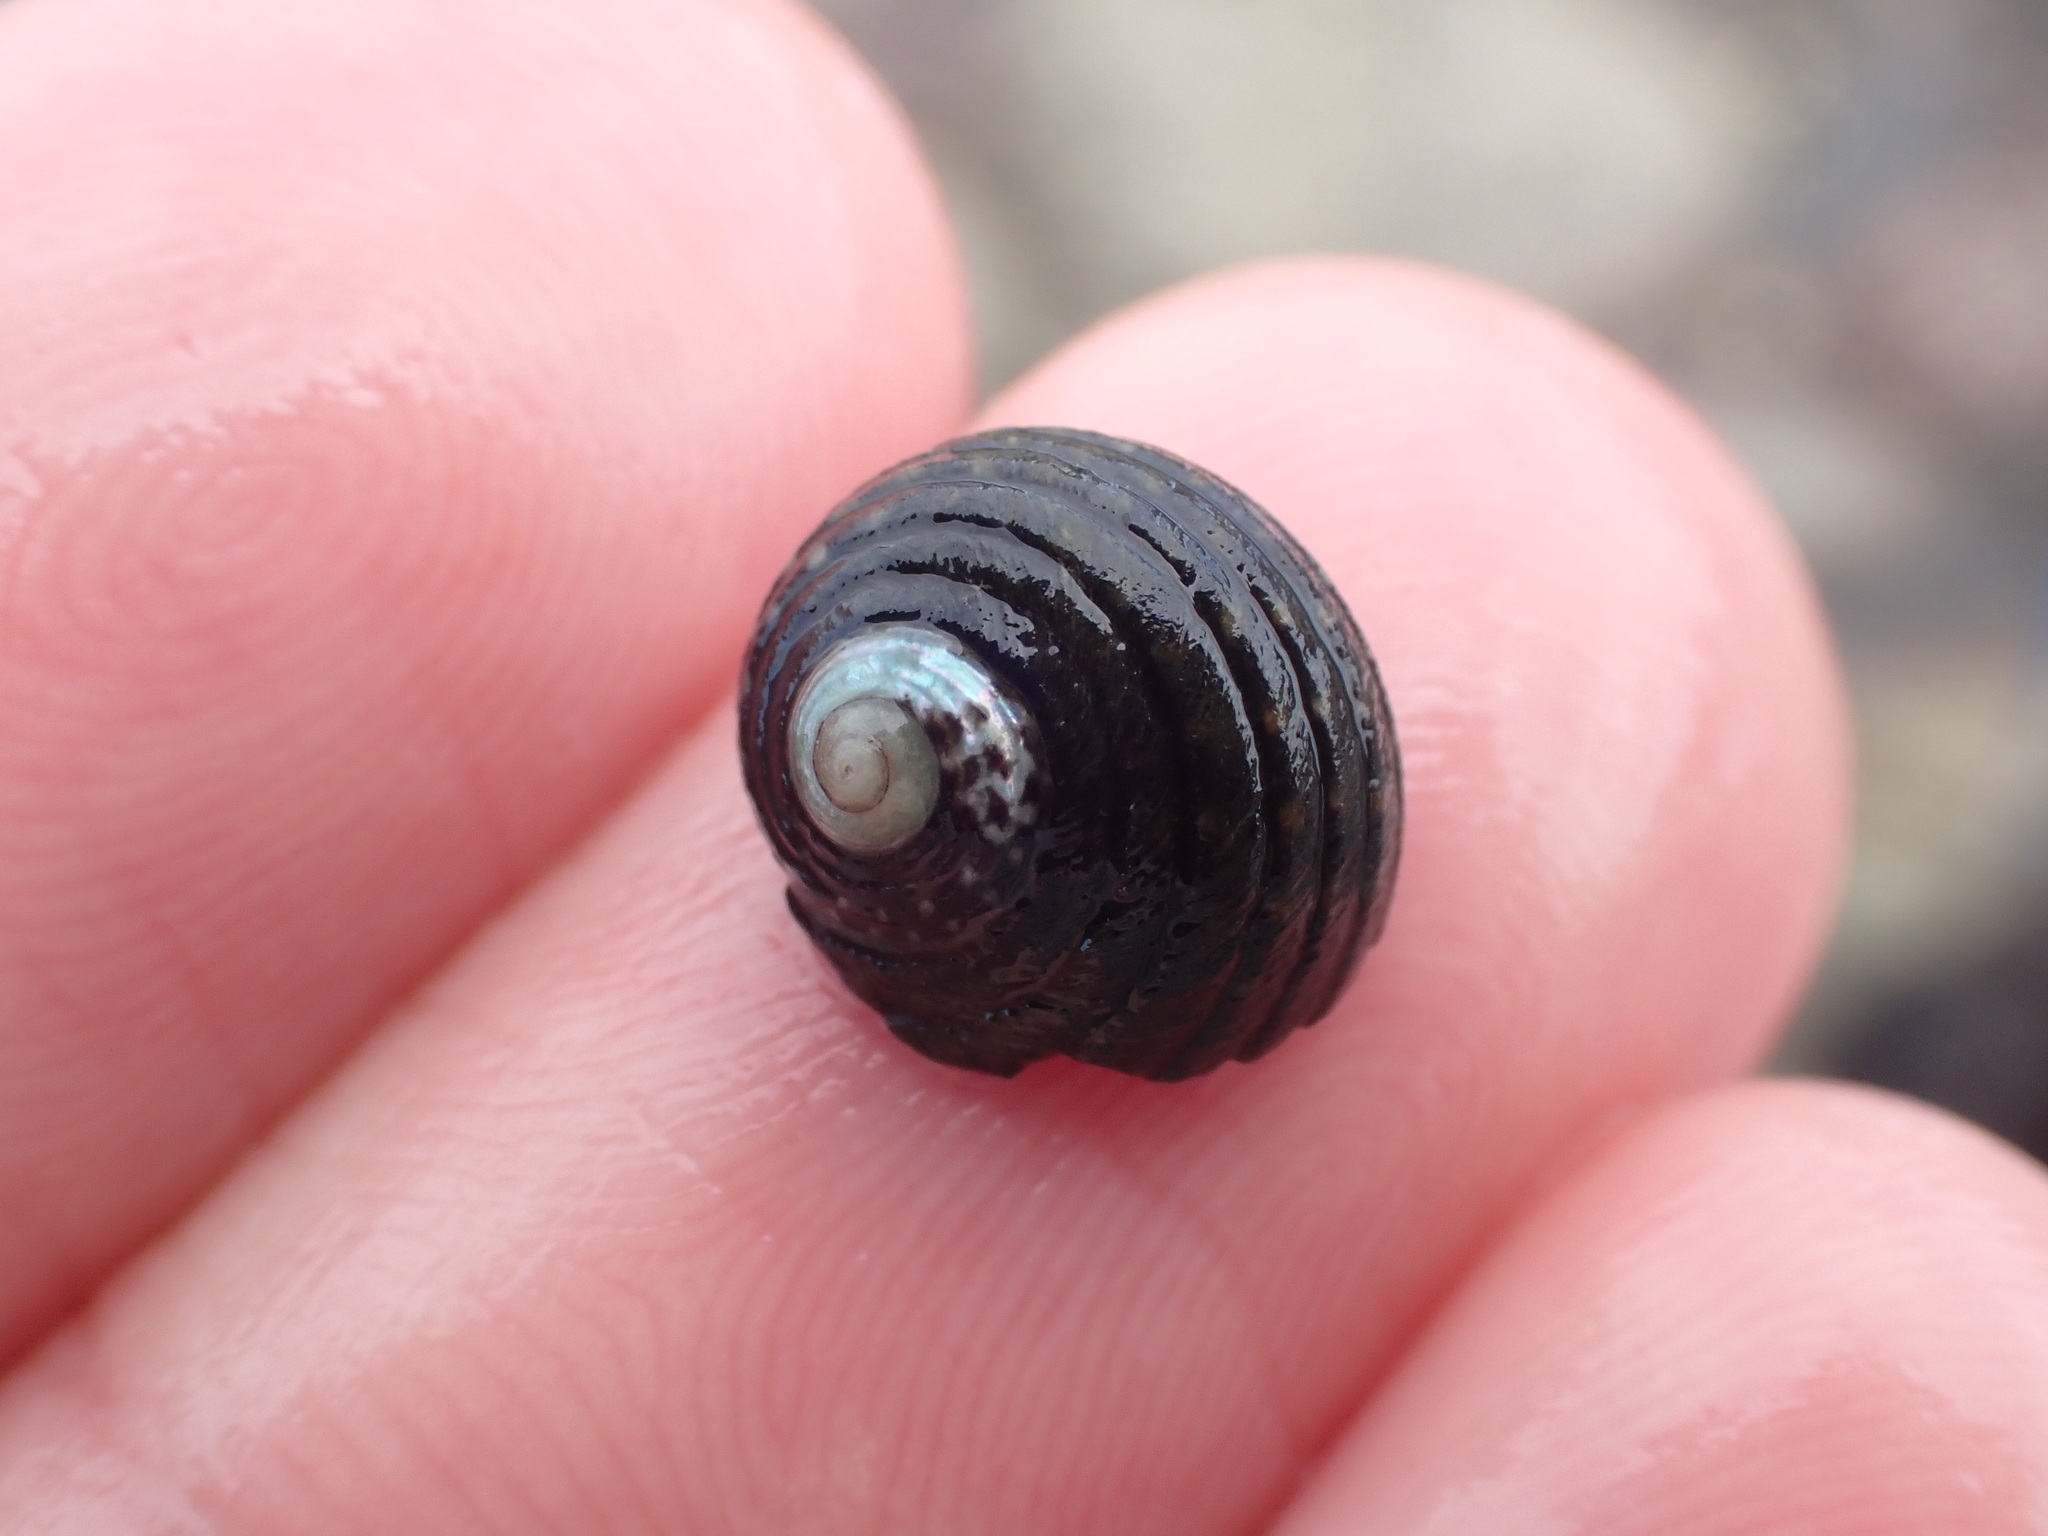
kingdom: Animalia
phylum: Mollusca
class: Gastropoda
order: Trochida
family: Trochidae
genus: Diloma
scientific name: Diloma aethiops
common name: Scorched monodont
